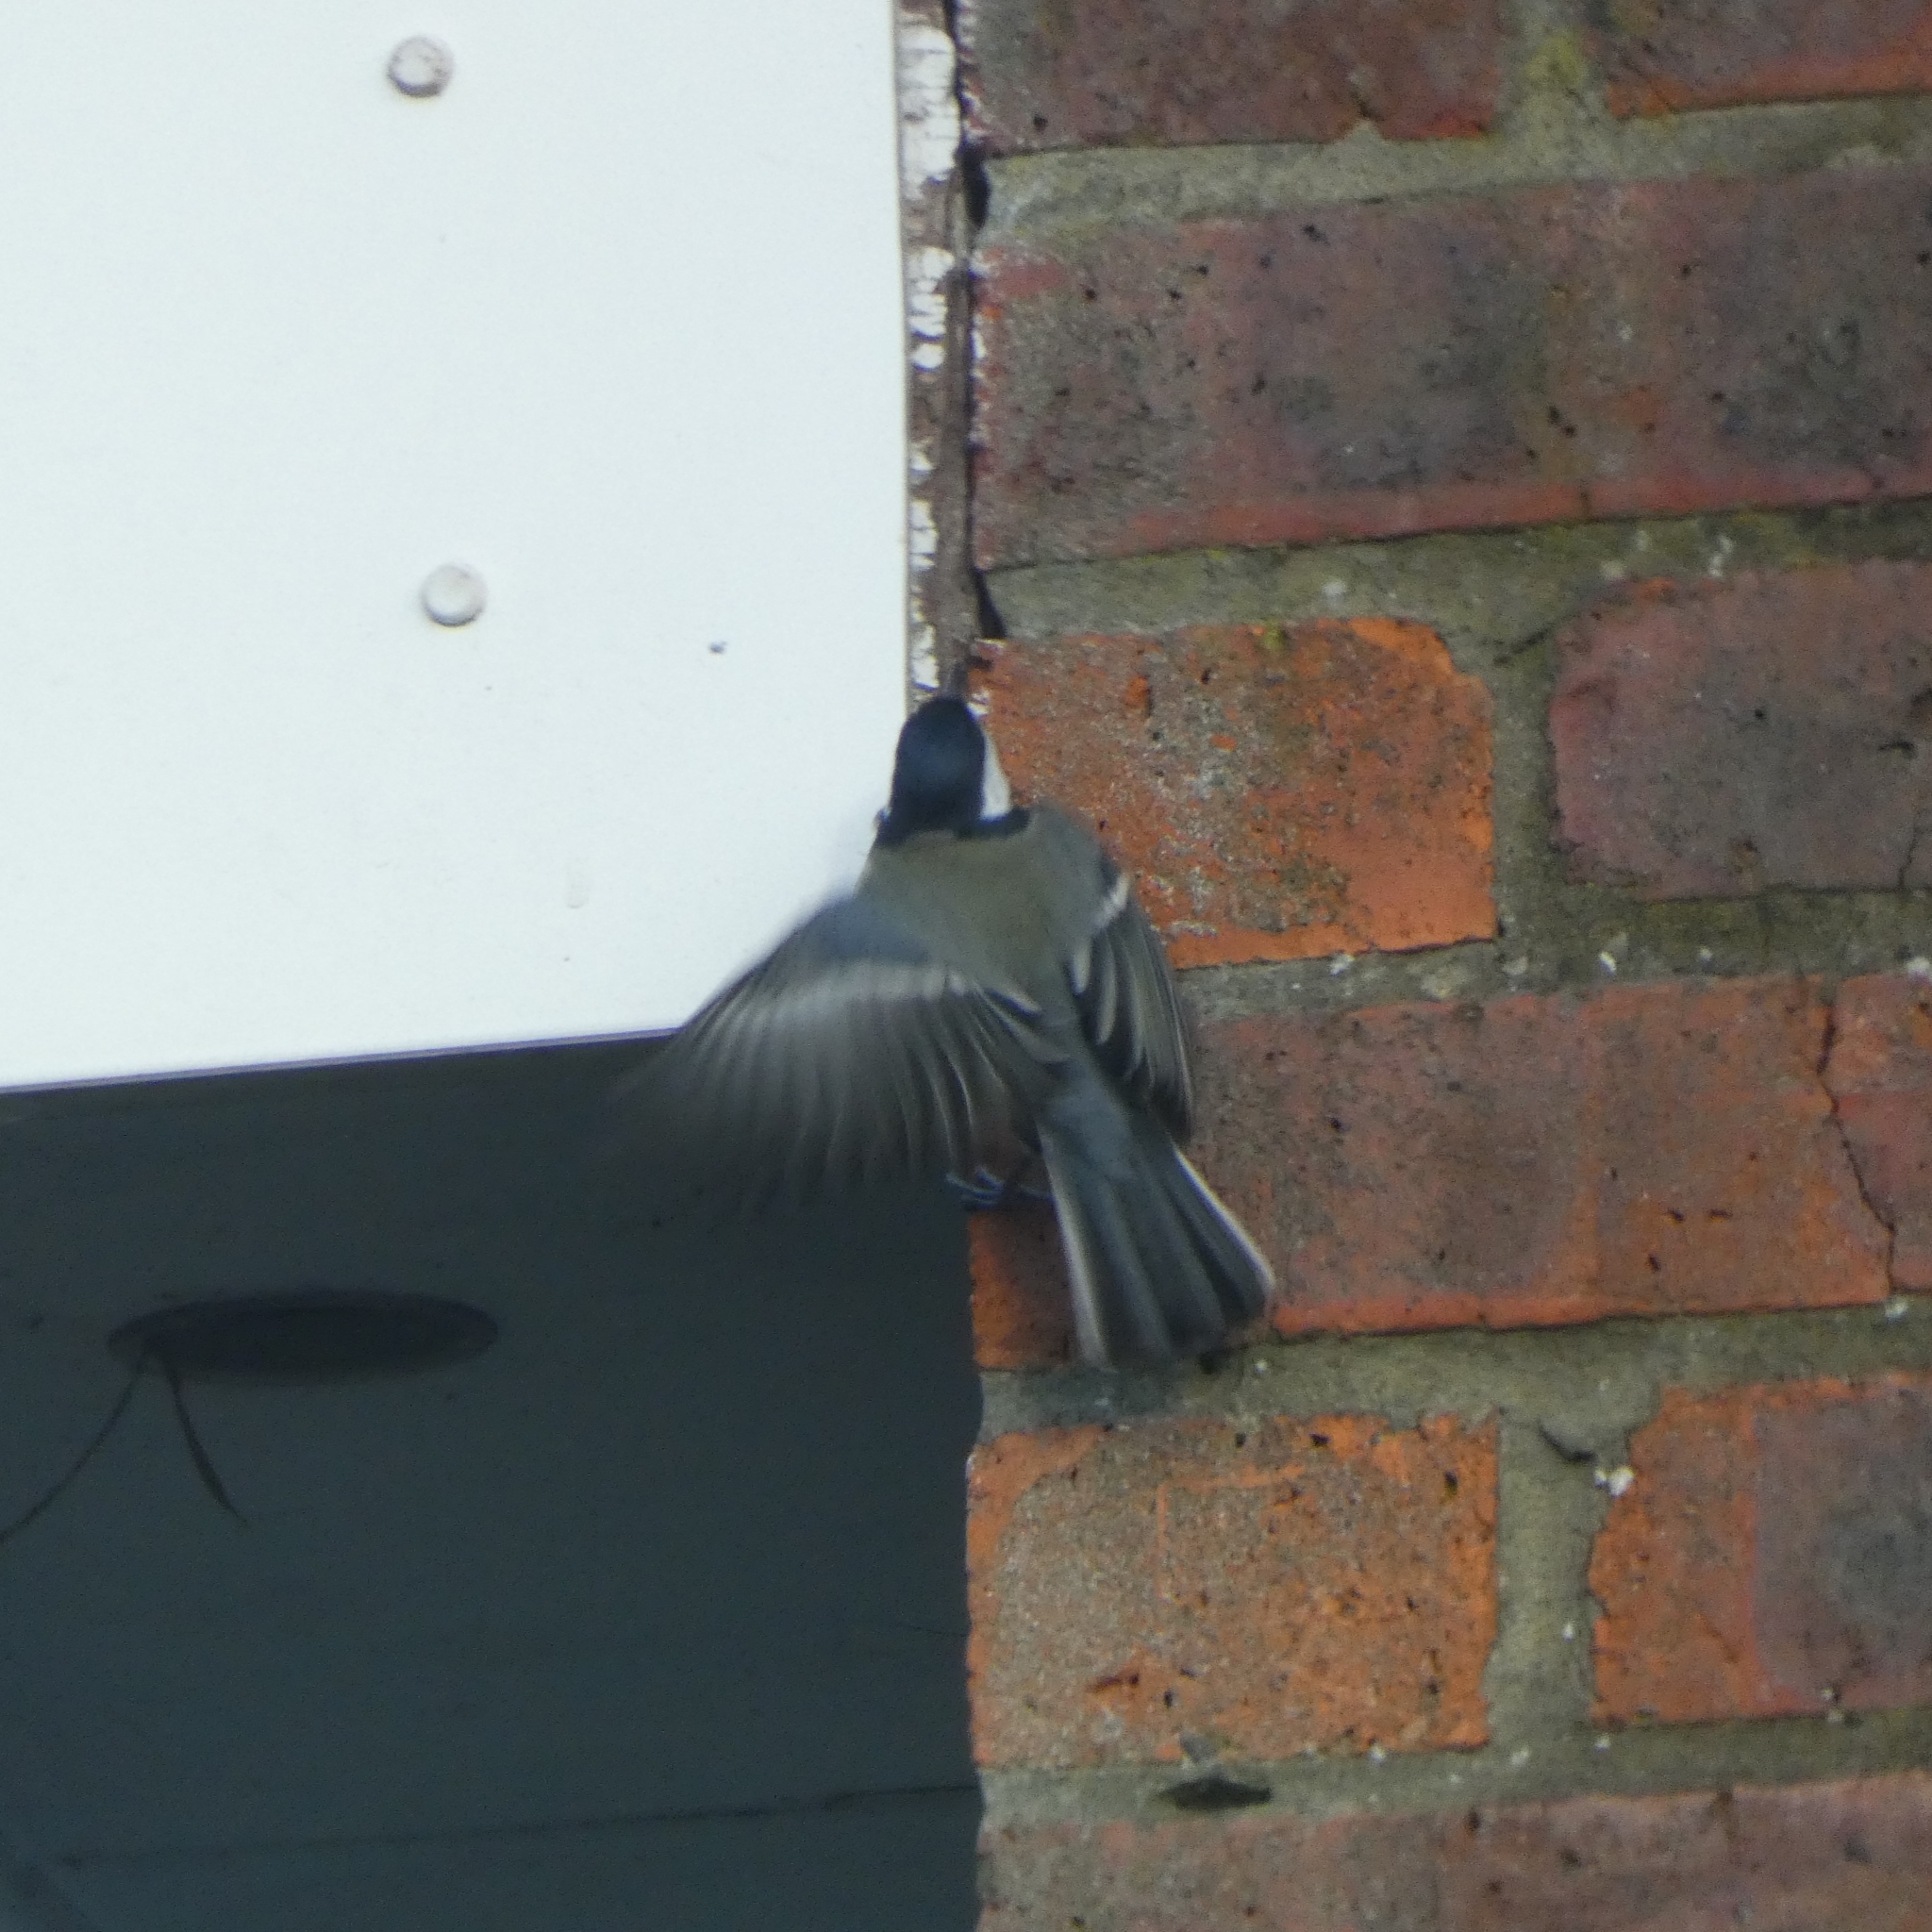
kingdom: Animalia
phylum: Chordata
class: Aves
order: Passeriformes
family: Paridae
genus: Parus
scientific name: Parus major
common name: Great tit
